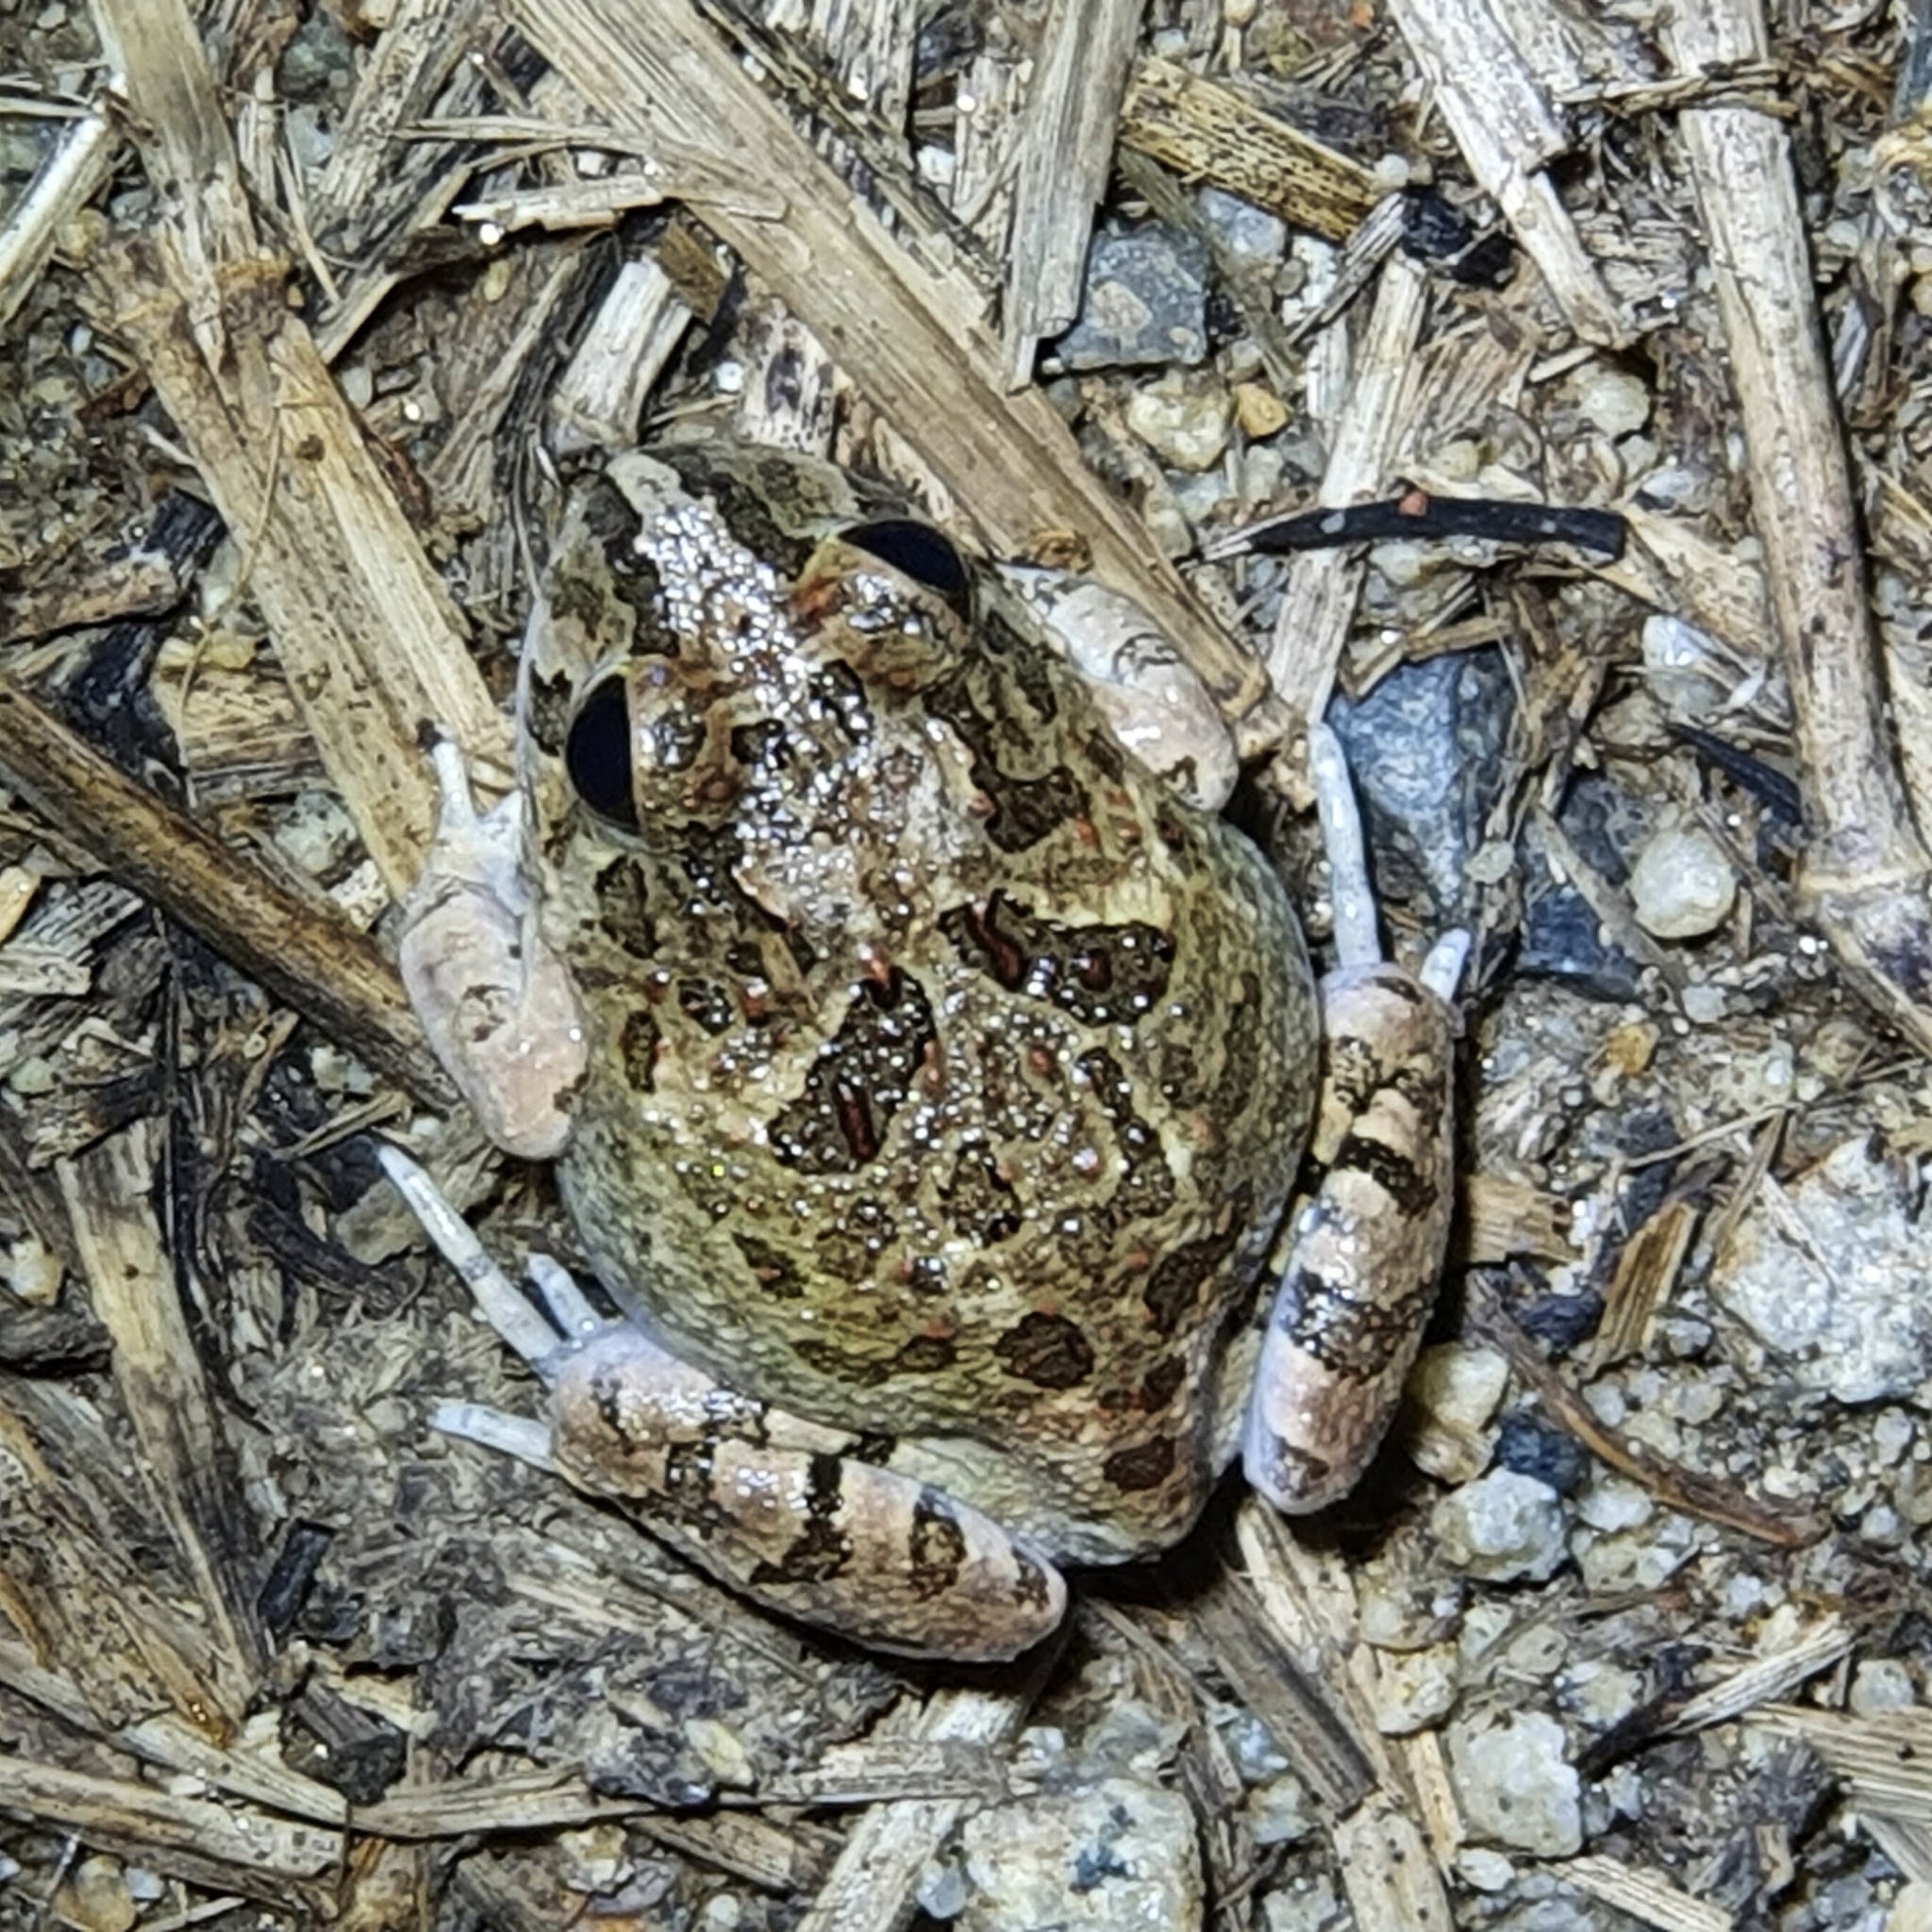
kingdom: Animalia
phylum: Chordata
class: Amphibia
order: Anura
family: Limnodynastidae
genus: Platyplectrum
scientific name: Platyplectrum ornatum
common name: Ornate burrowing frog
